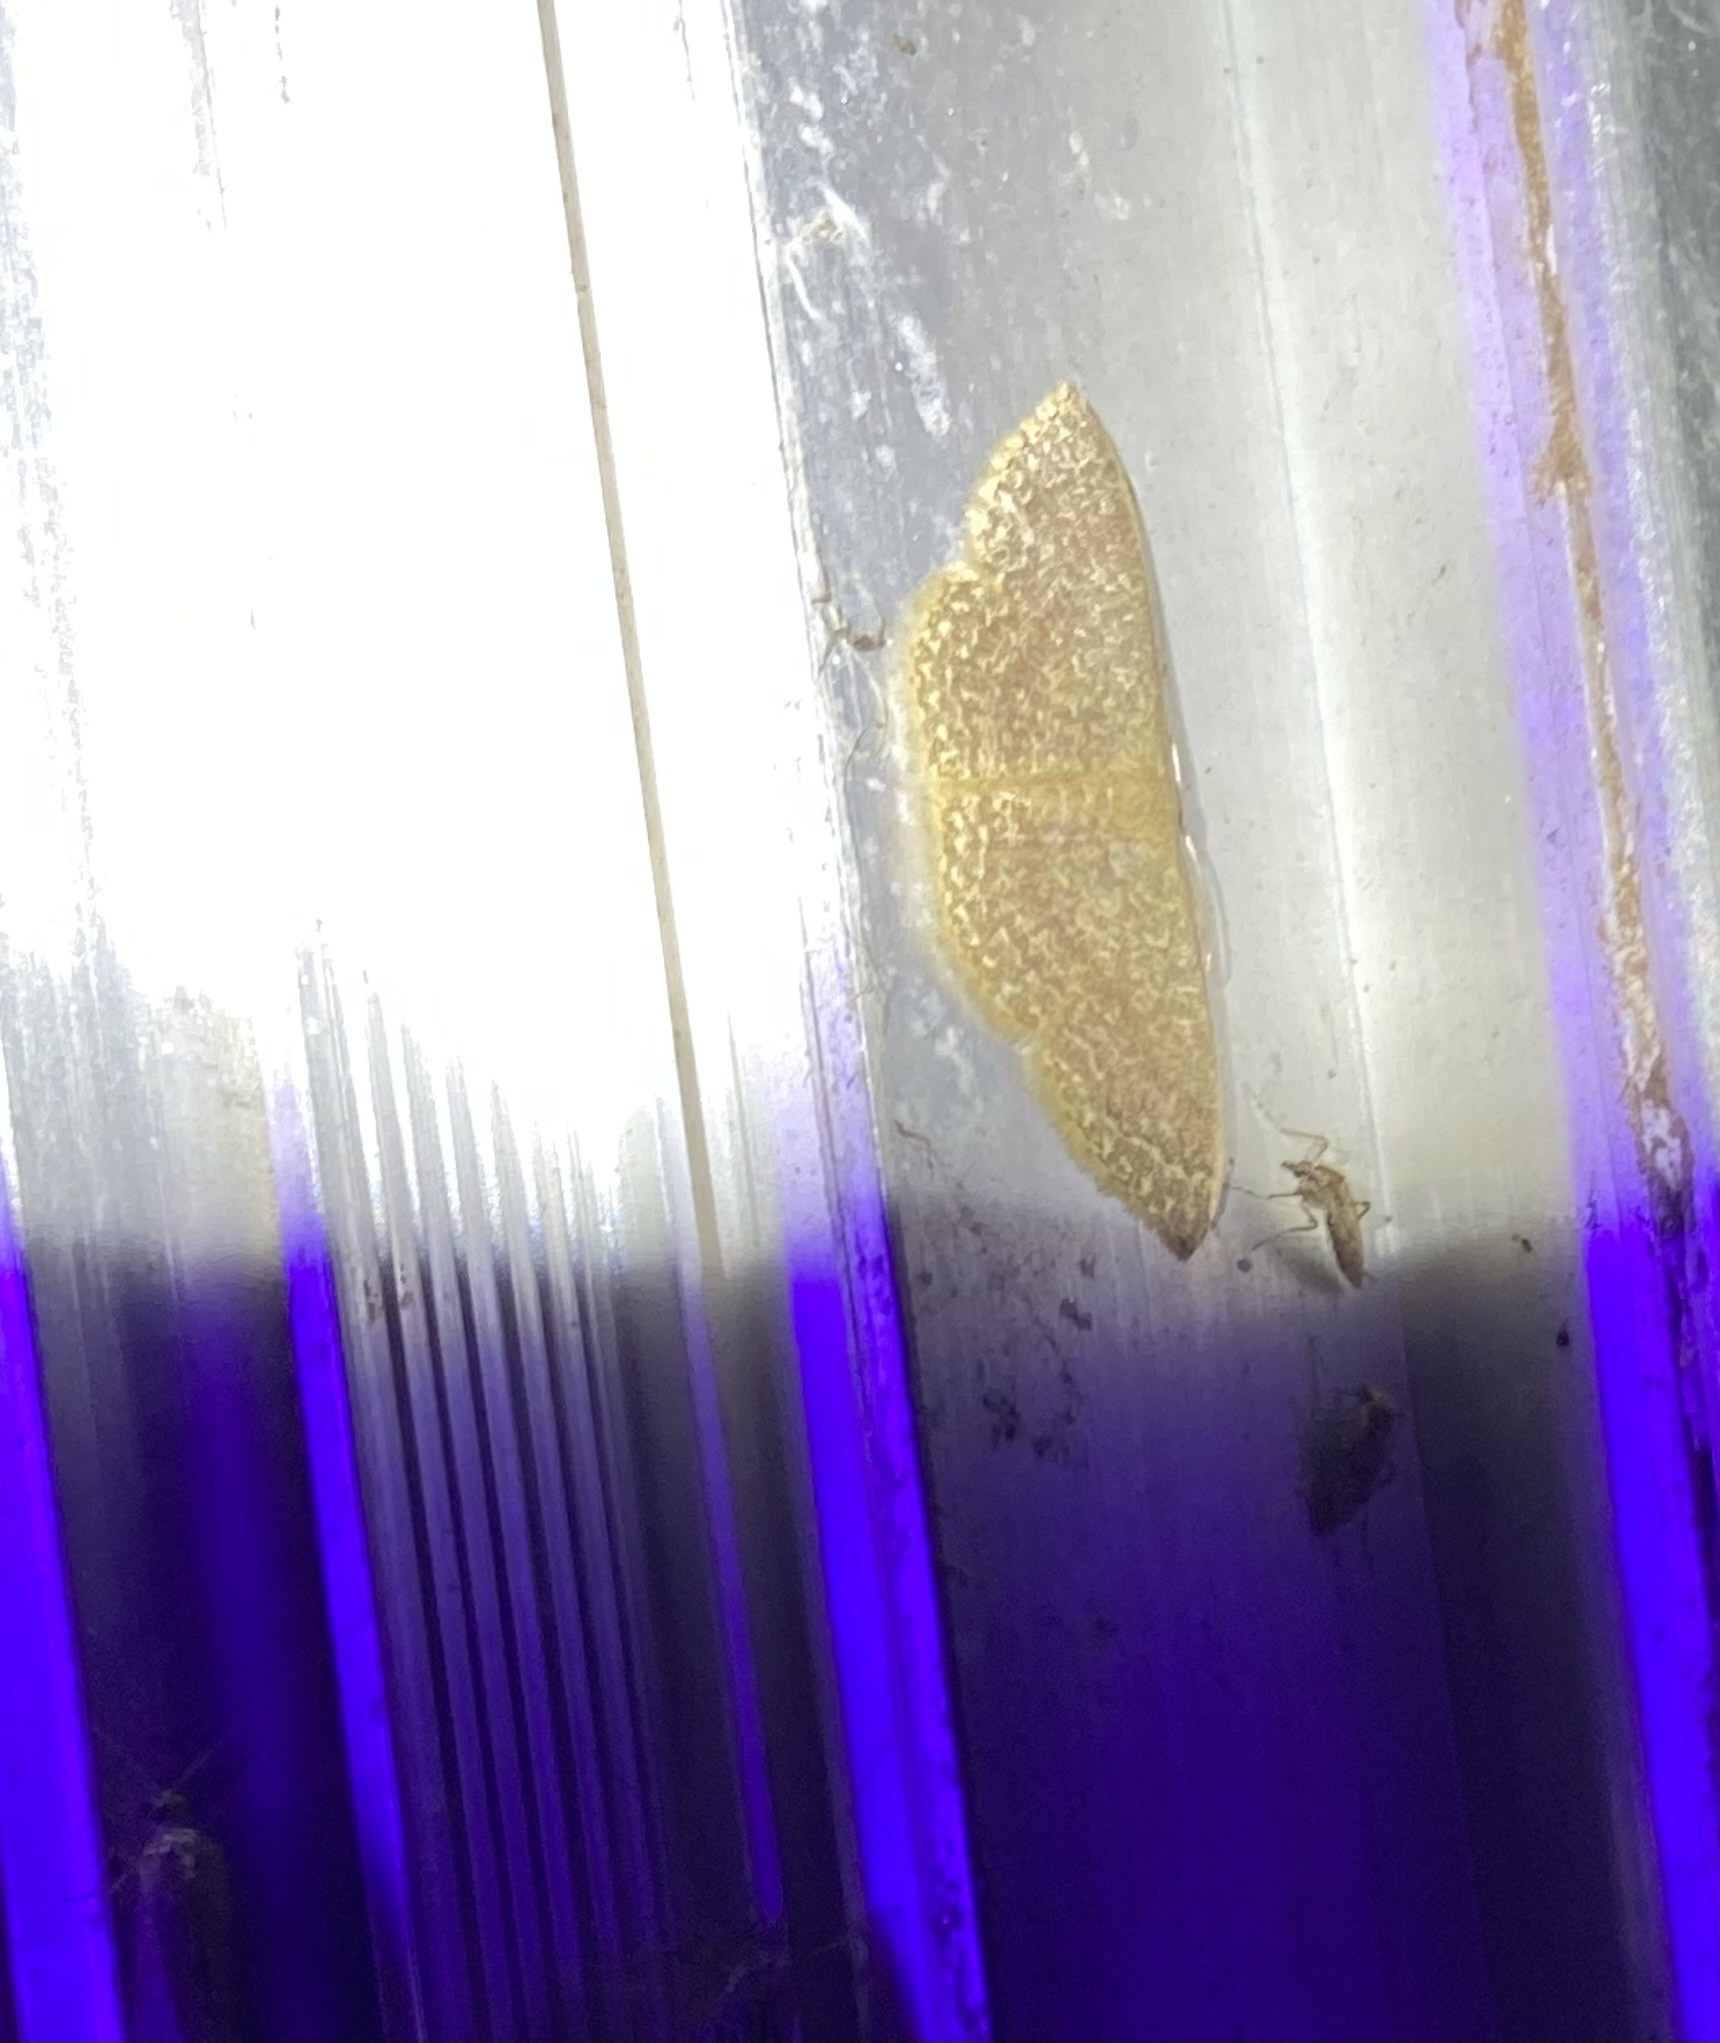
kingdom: Animalia
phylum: Arthropoda
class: Insecta
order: Lepidoptera
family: Geometridae
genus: Pleuroprucha
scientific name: Pleuroprucha insulsaria
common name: Common tan wave
